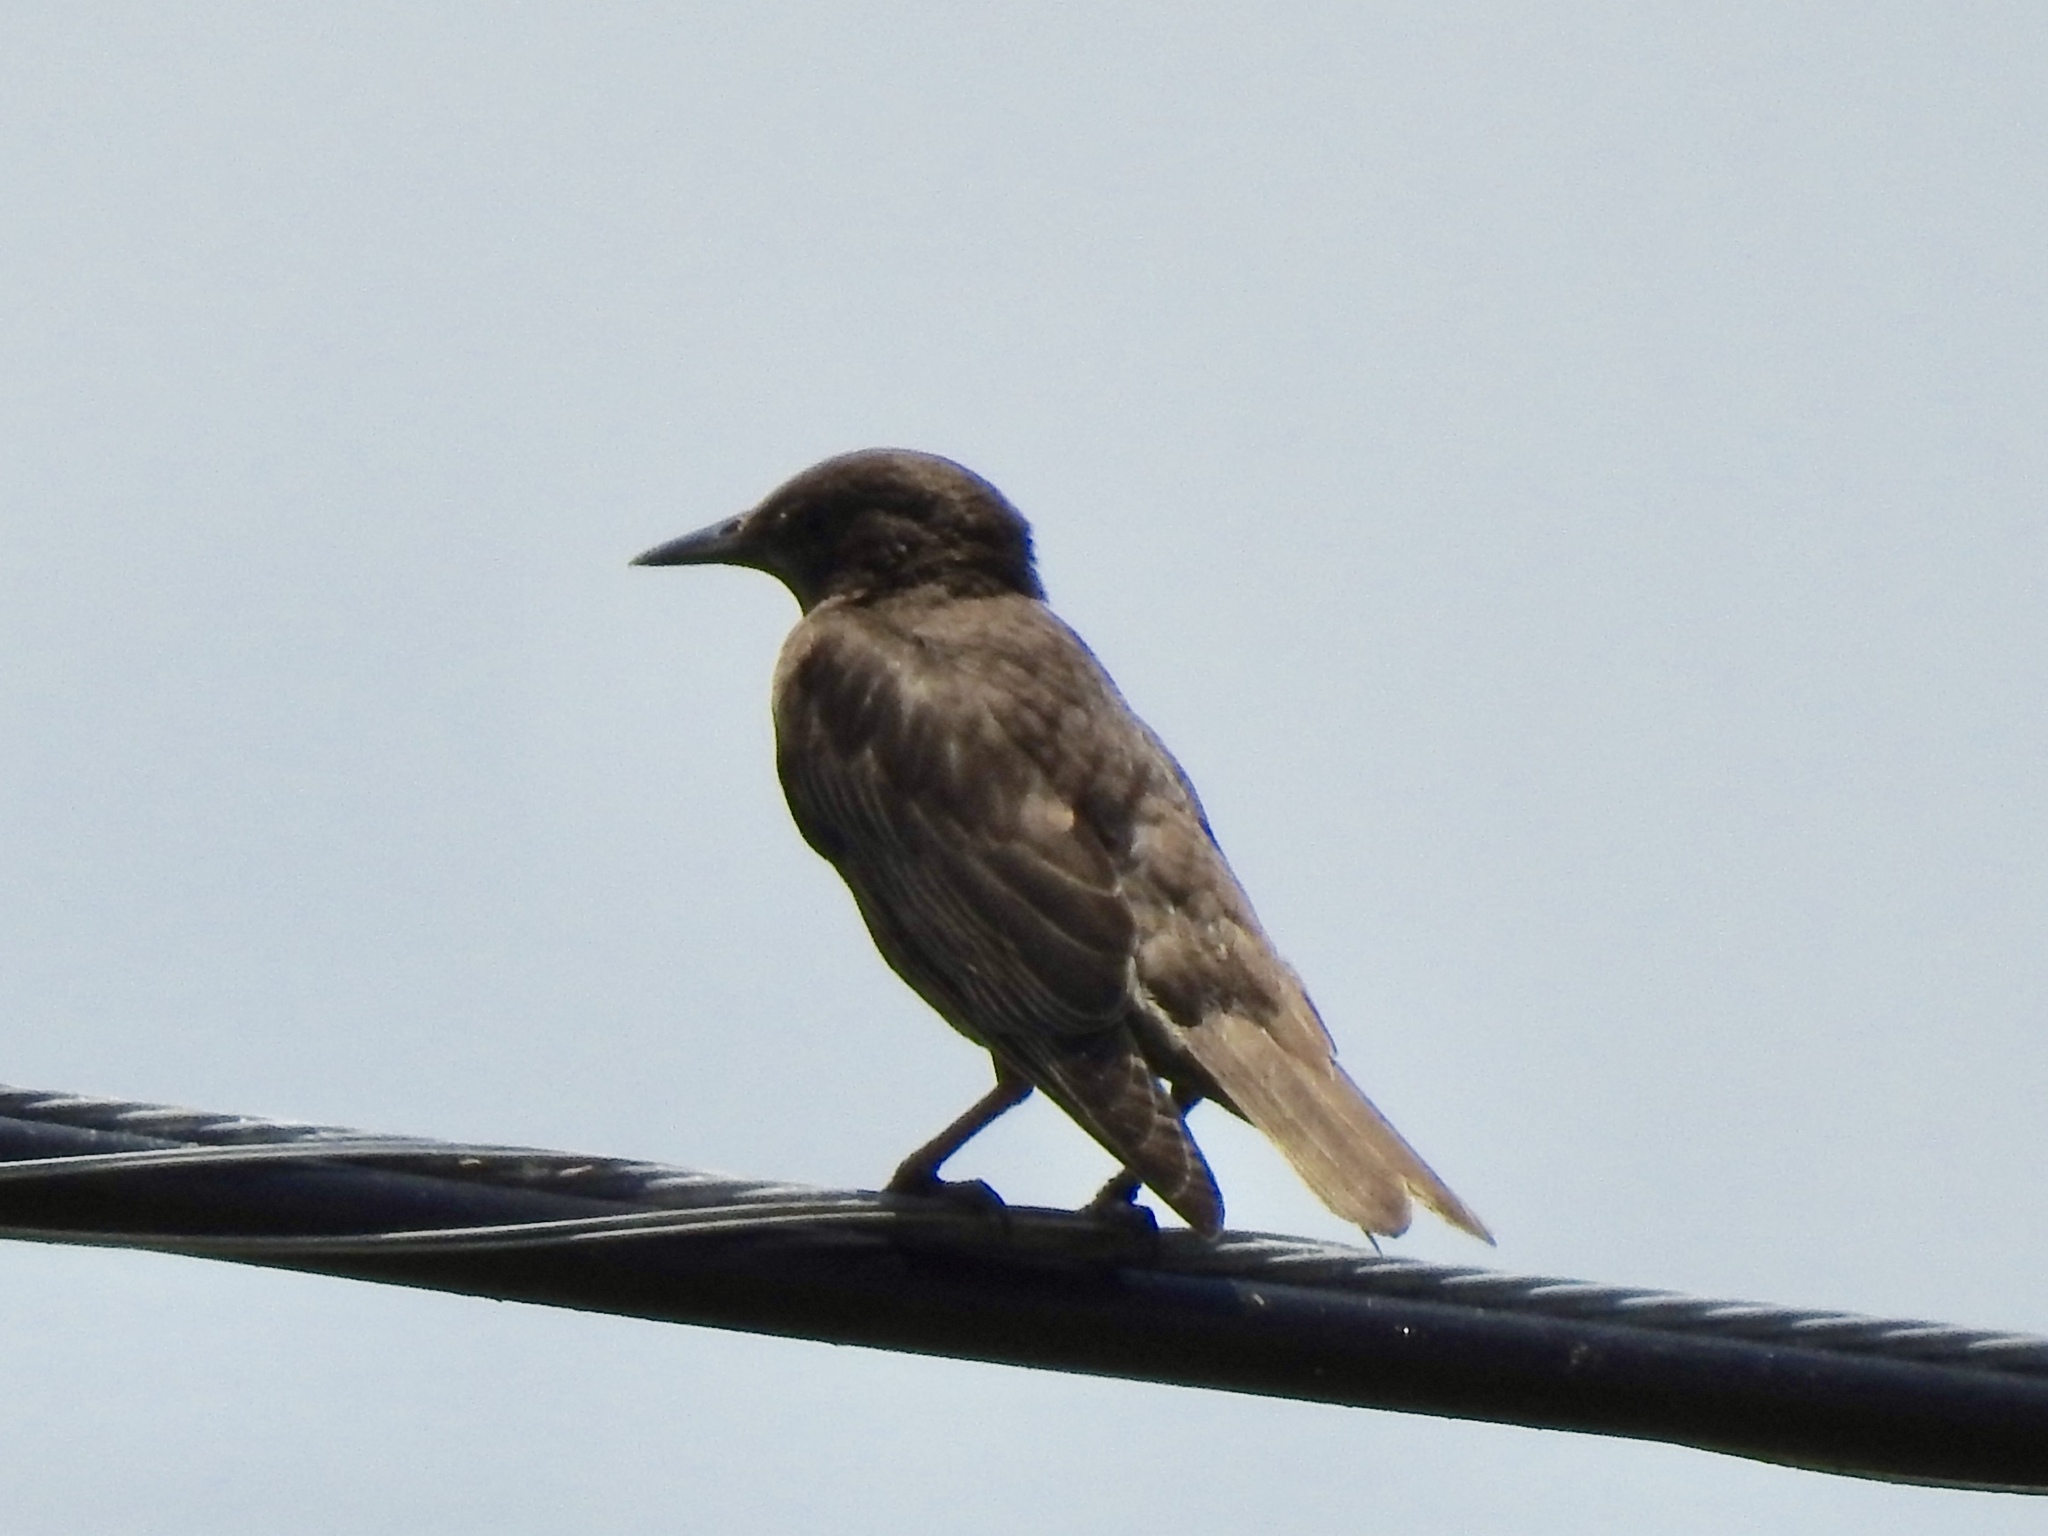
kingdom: Animalia
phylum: Chordata
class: Aves
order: Passeriformes
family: Sturnidae
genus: Sturnus
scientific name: Sturnus vulgaris
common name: Common starling
